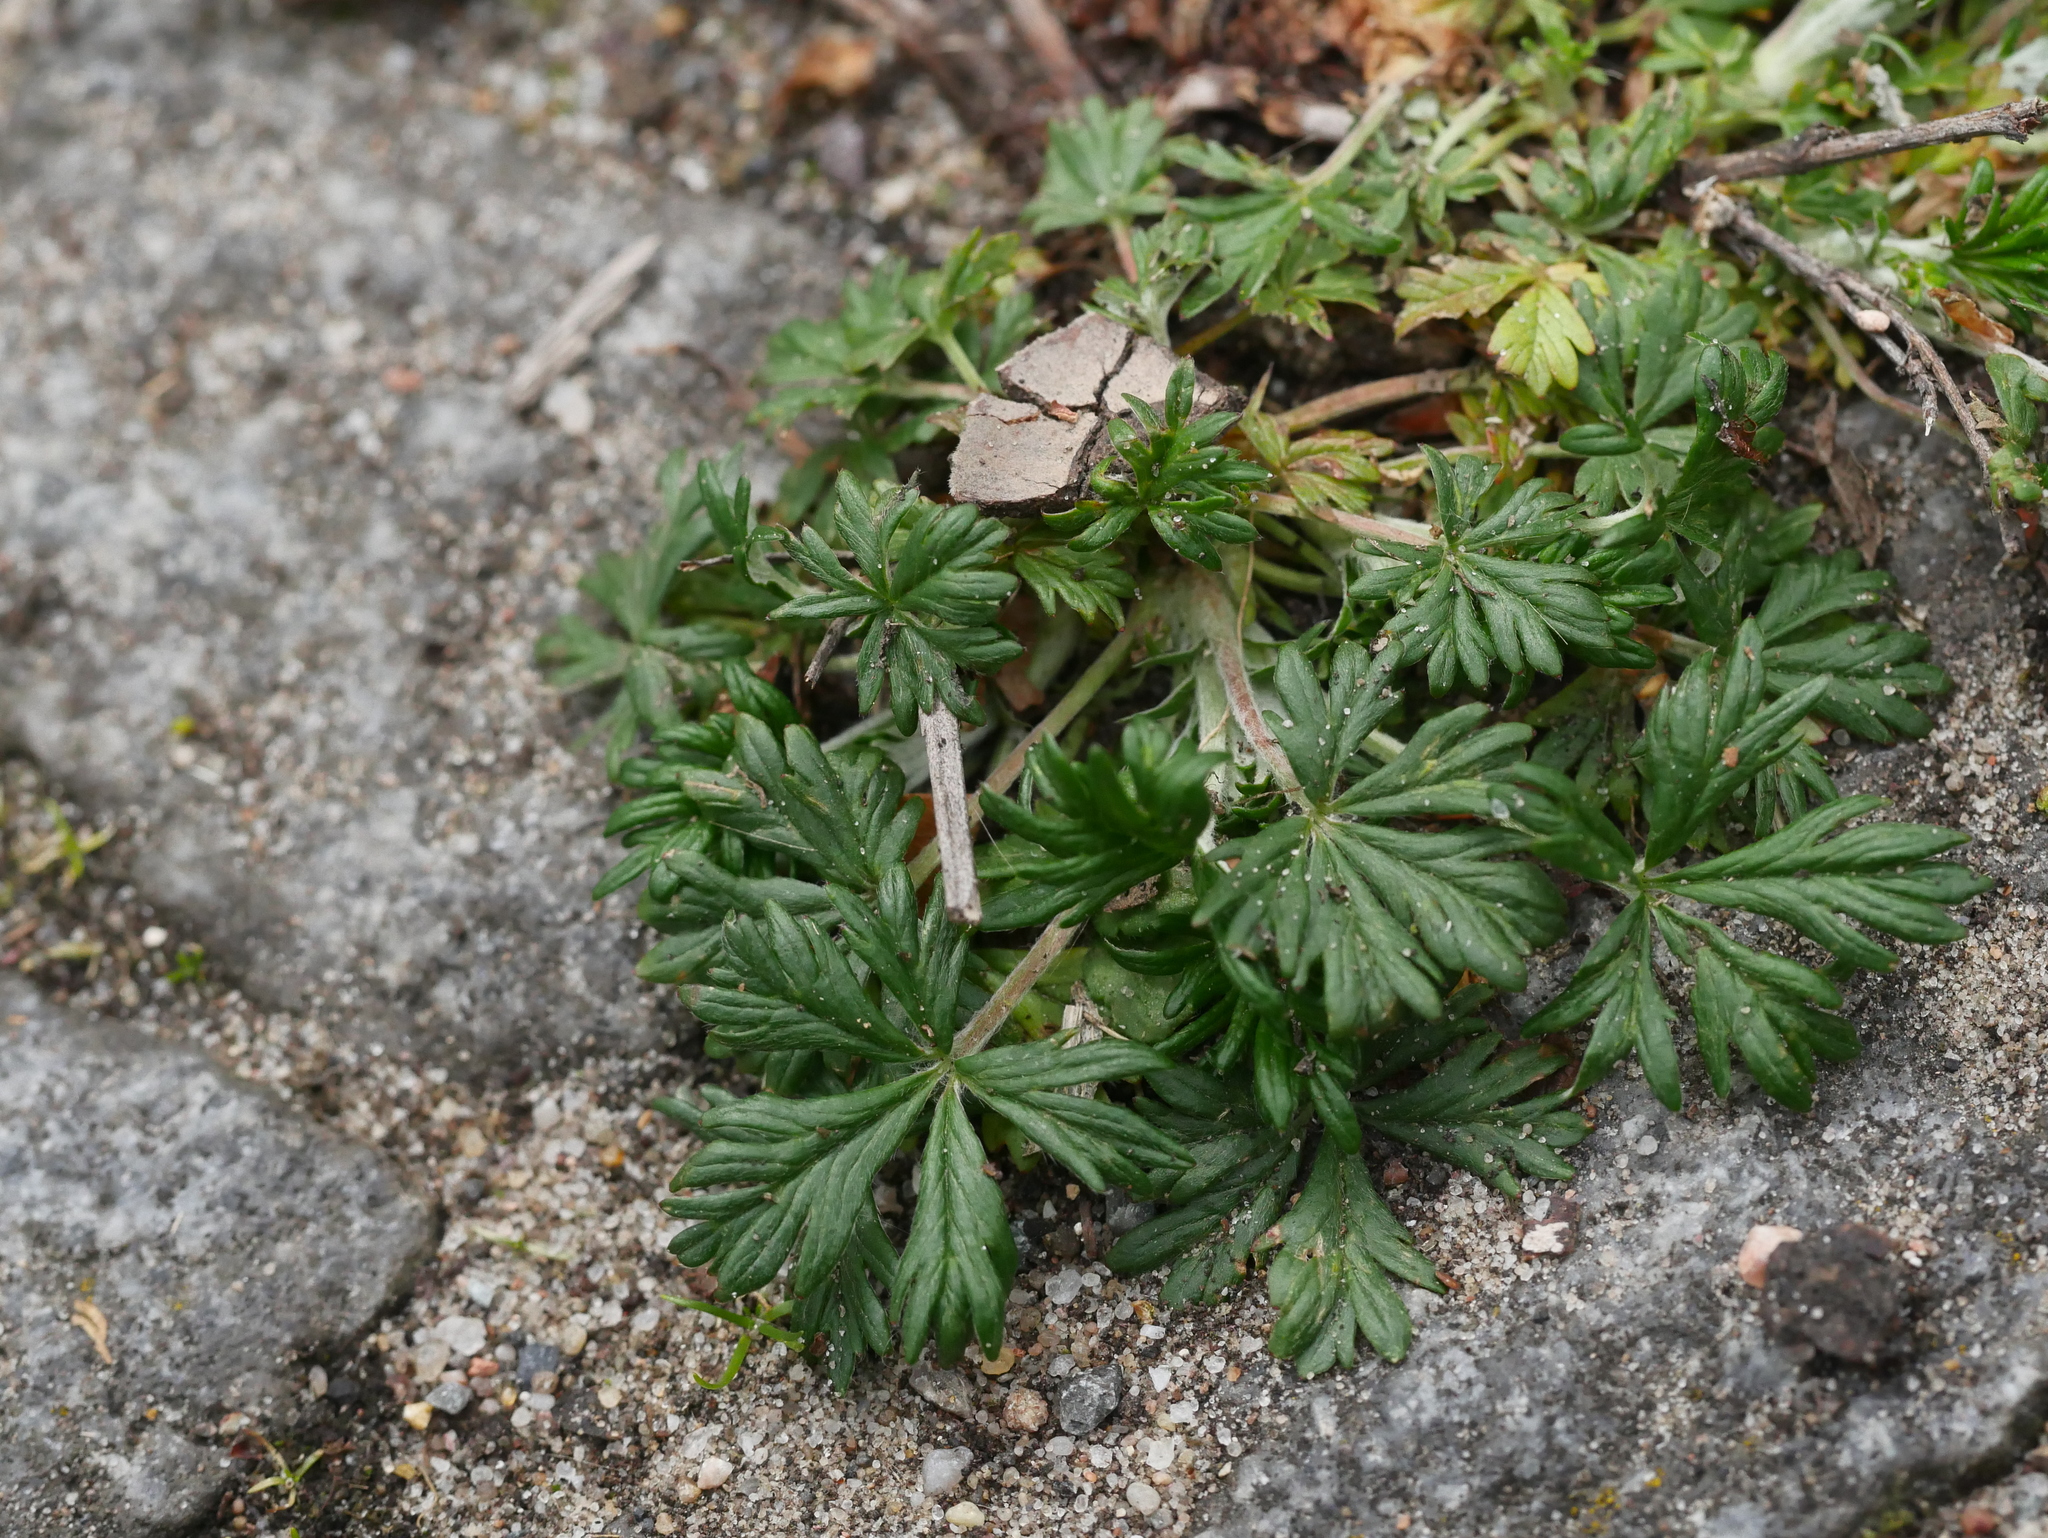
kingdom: Plantae
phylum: Tracheophyta
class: Magnoliopsida
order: Rosales
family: Rosaceae
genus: Potentilla
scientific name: Potentilla argentea
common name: Hoary cinquefoil
